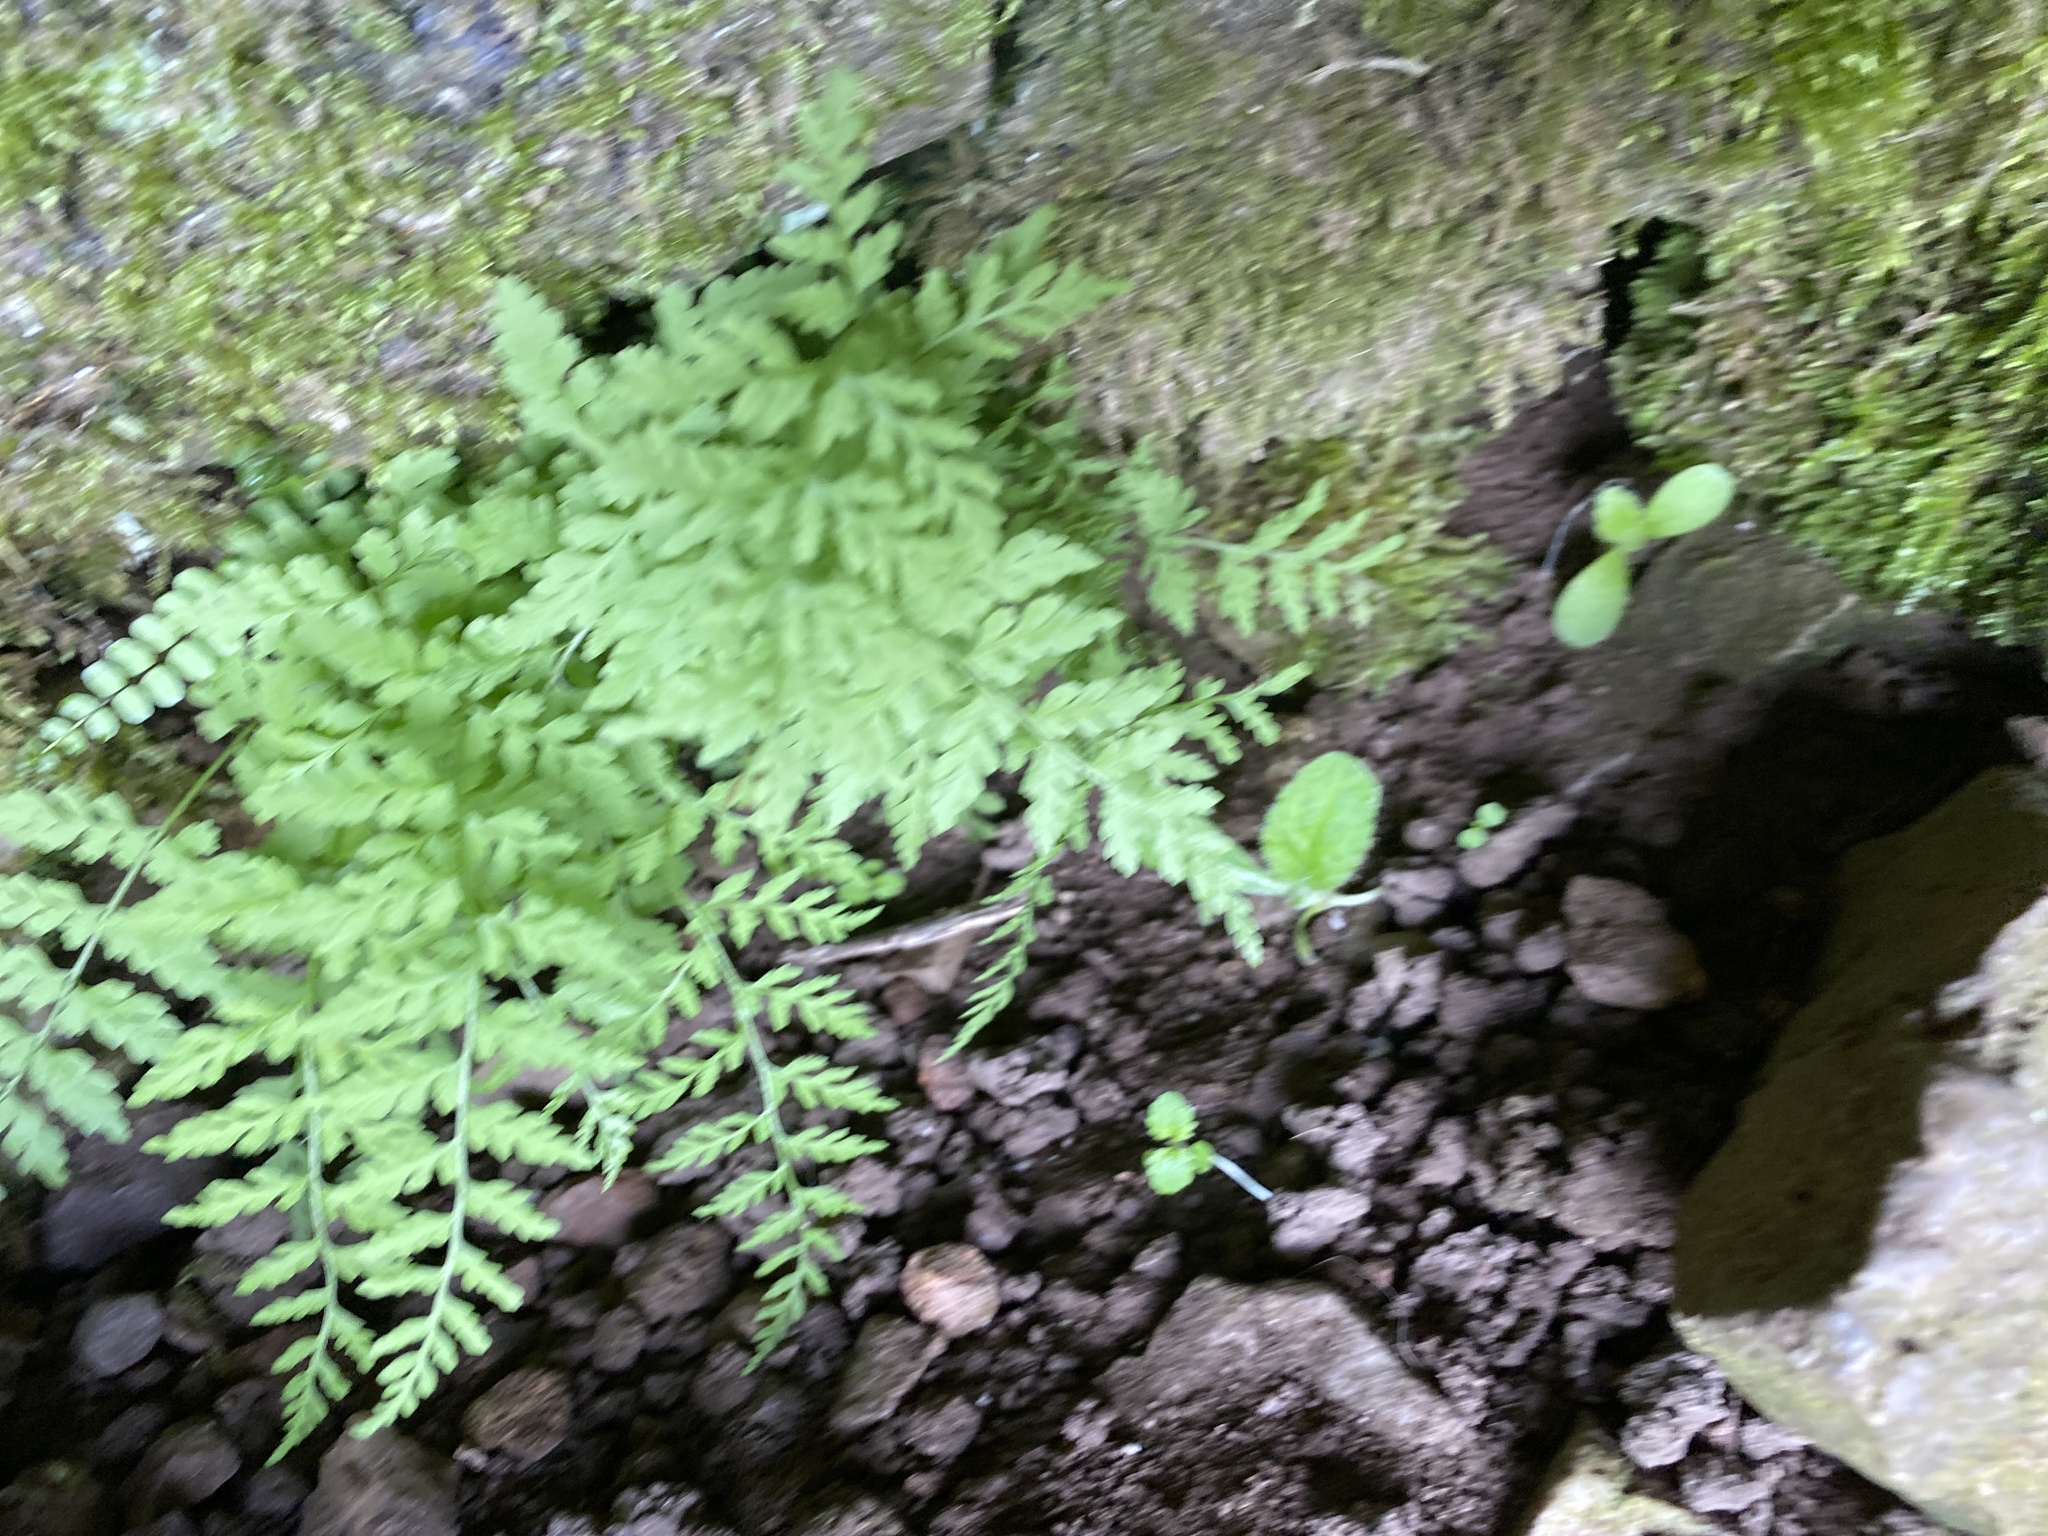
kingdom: Plantae
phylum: Tracheophyta
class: Polypodiopsida
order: Polypodiales
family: Cystopteridaceae
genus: Cystopteris
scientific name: Cystopteris fragilis
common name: Brittle bladder fern
